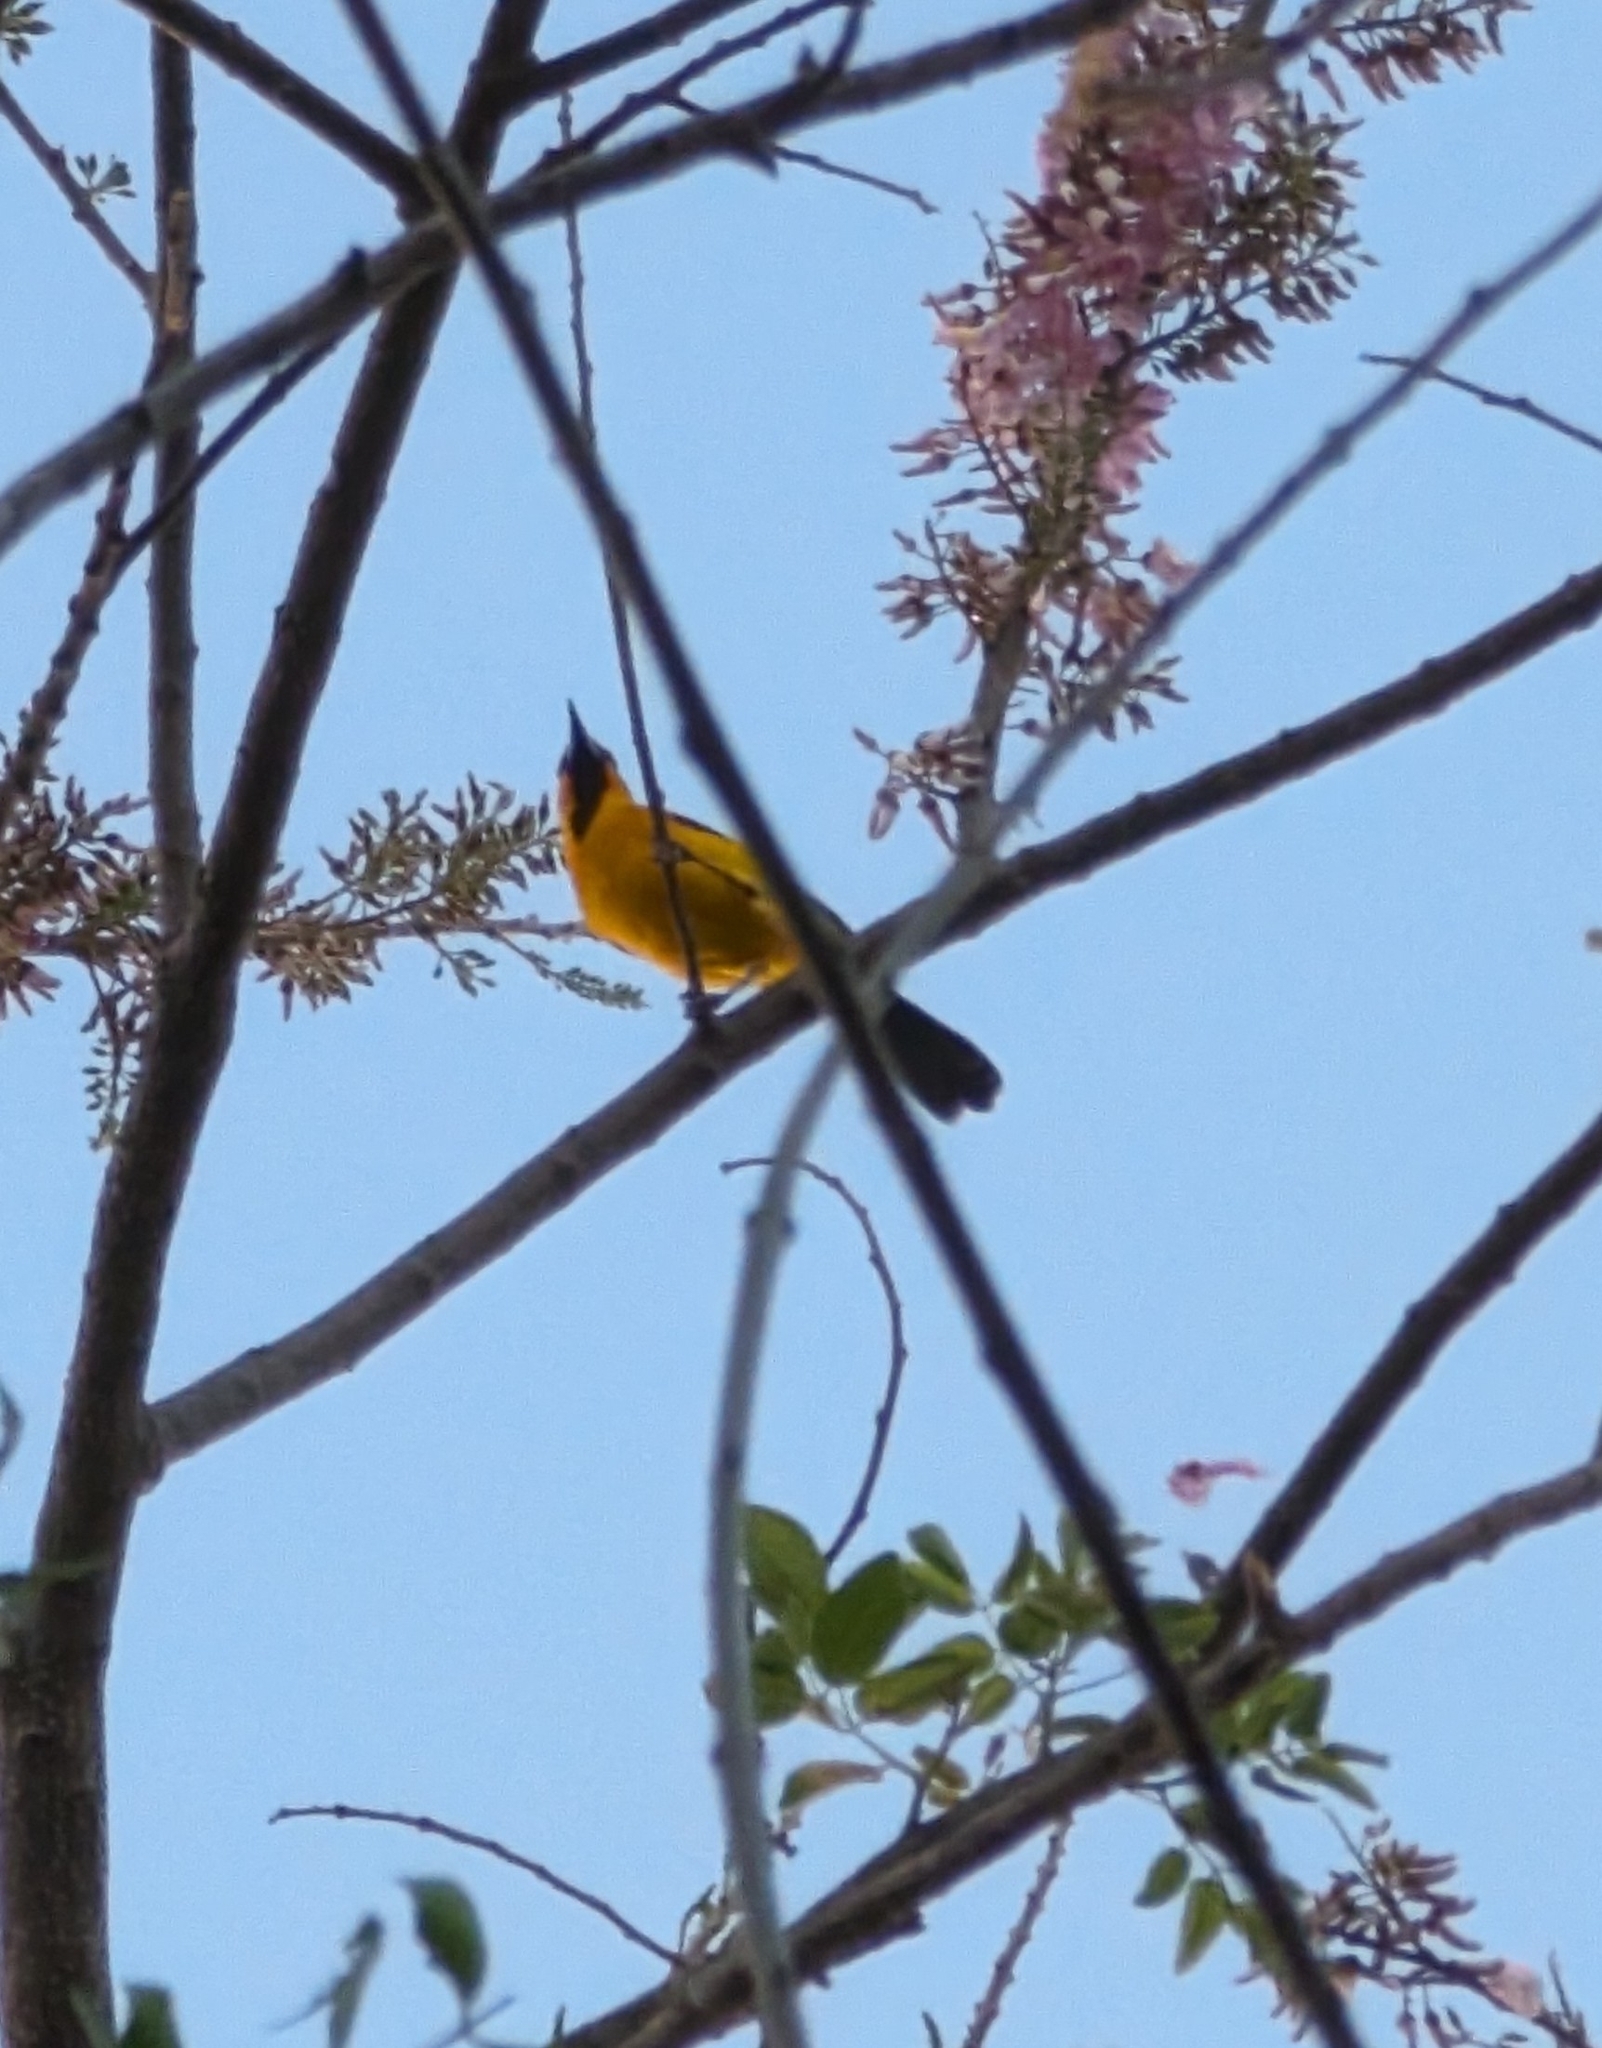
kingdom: Animalia
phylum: Chordata
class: Aves
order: Passeriformes
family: Icteridae
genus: Icterus
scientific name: Icterus pustulatus
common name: Streak-backed oriole
